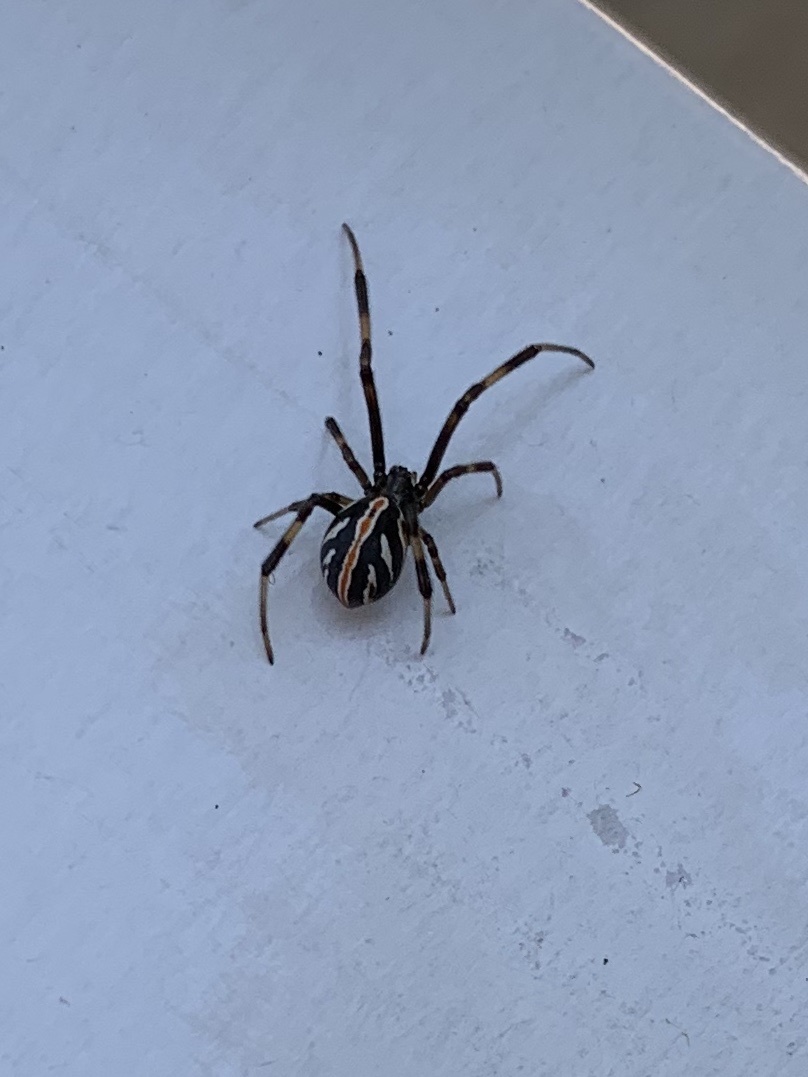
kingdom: Animalia
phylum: Arthropoda
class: Arachnida
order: Araneae
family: Theridiidae
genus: Latrodectus
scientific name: Latrodectus hesperus
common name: Western black widow
